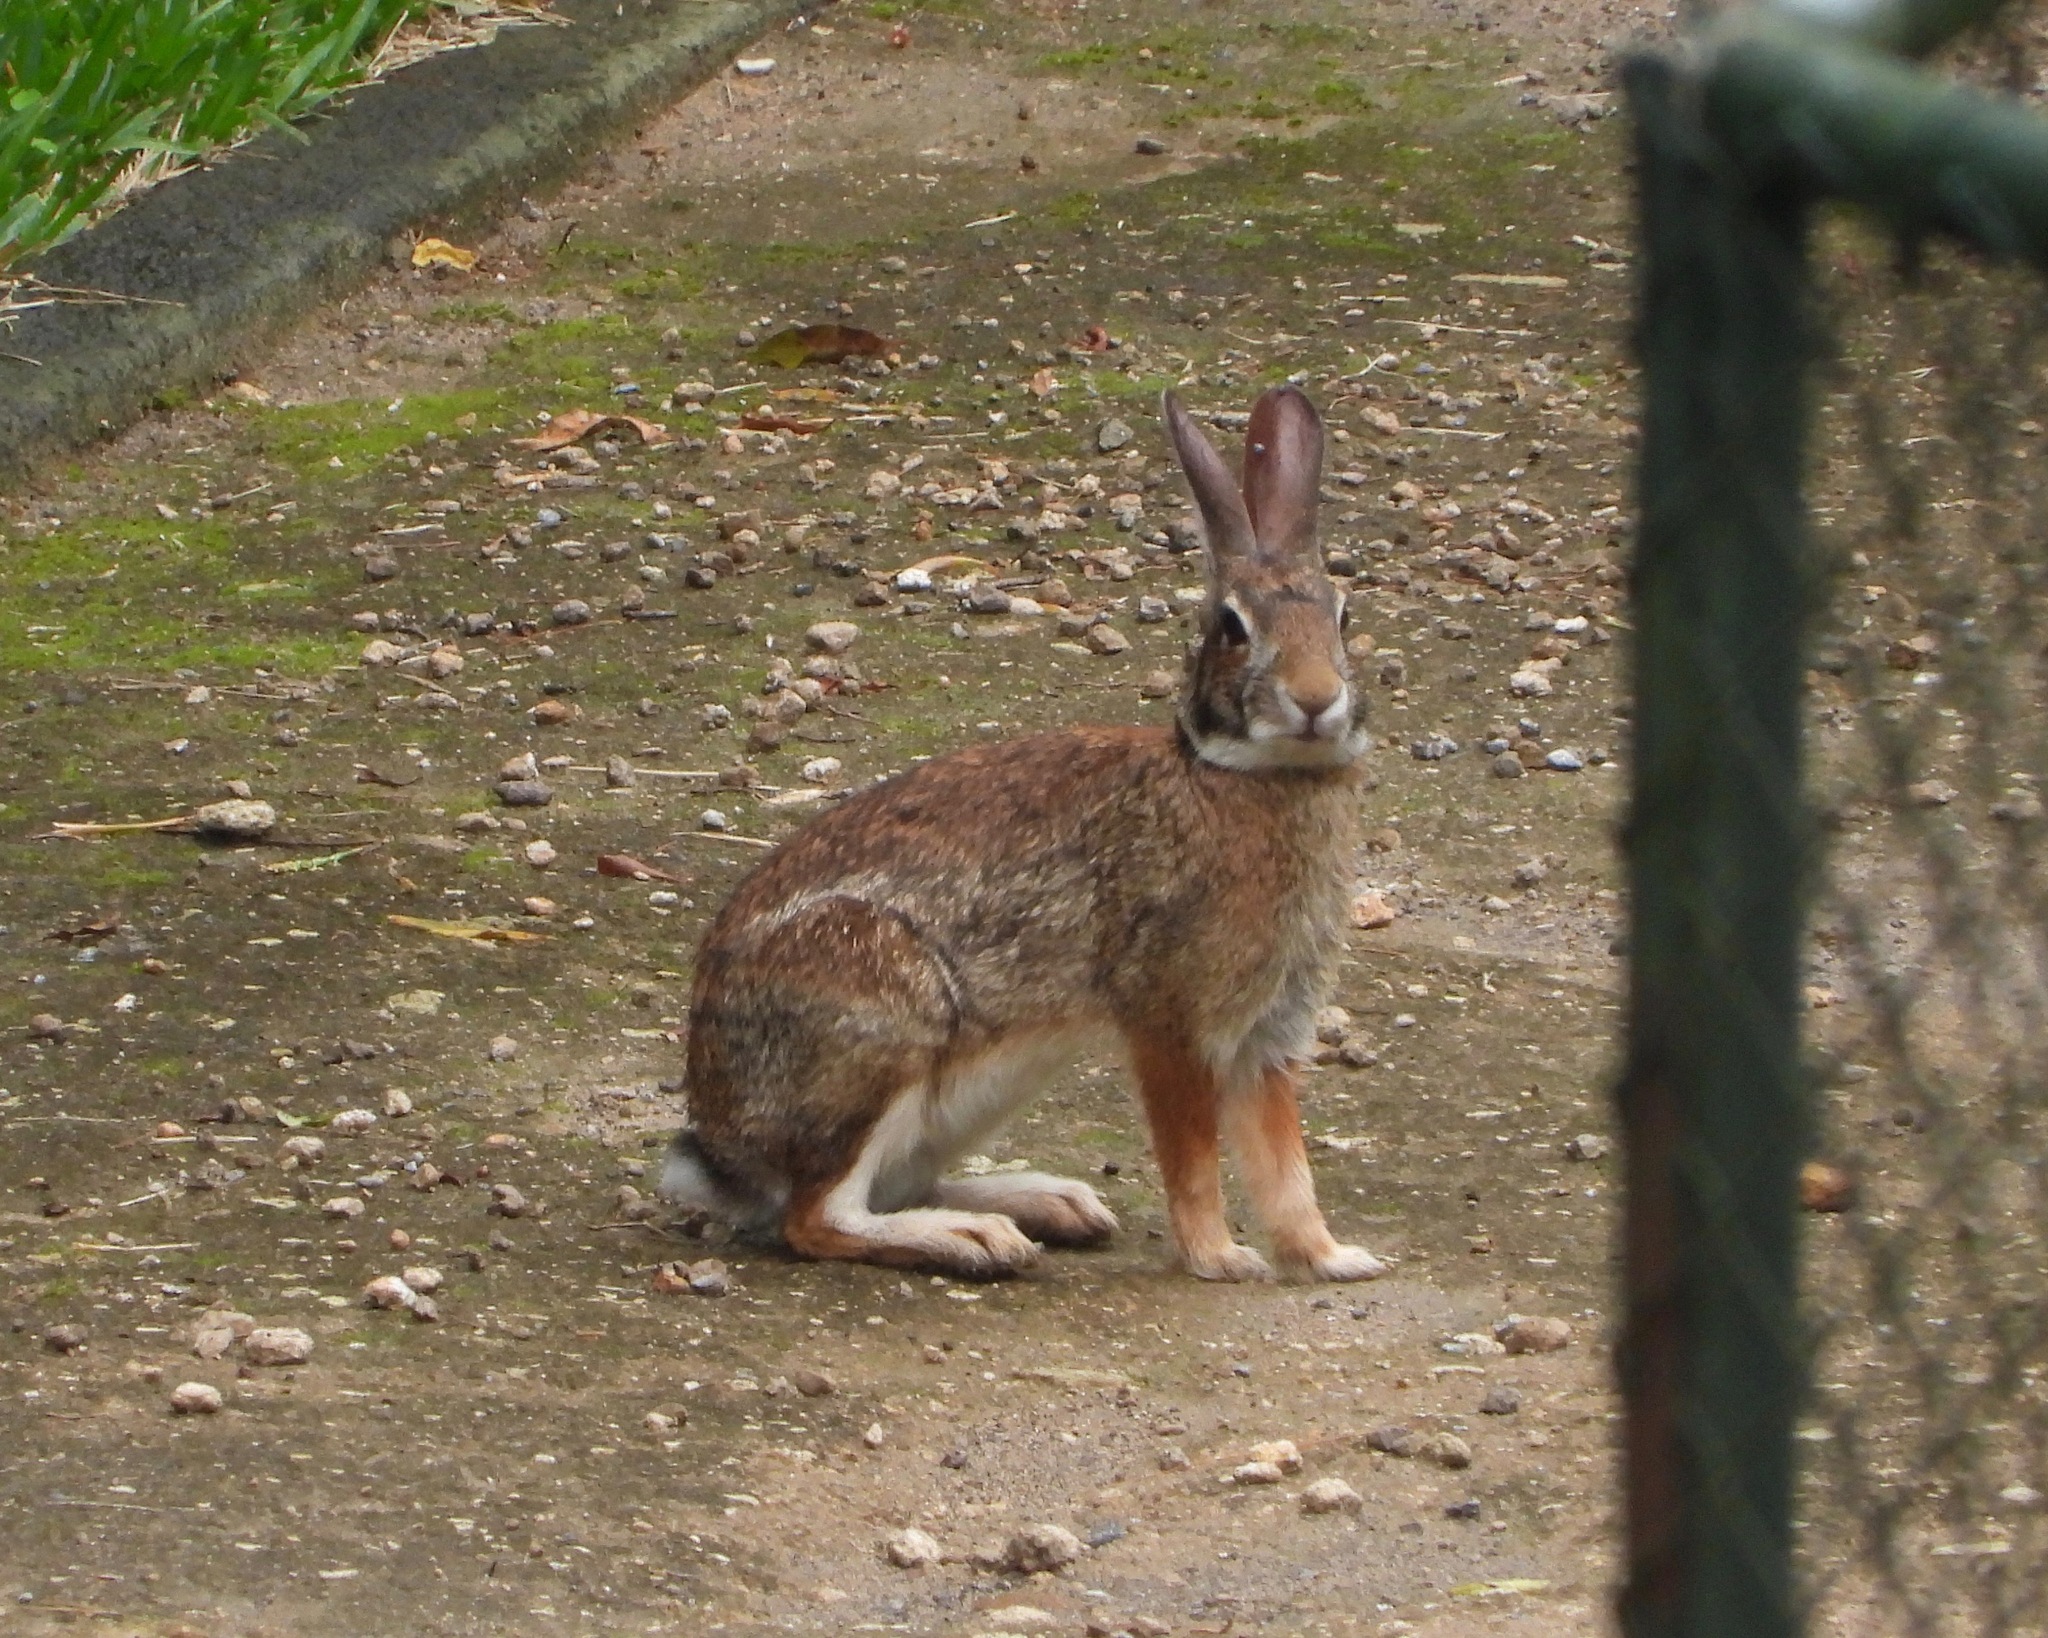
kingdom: Animalia
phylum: Chordata
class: Mammalia
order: Lagomorpha
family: Leporidae
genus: Sylvilagus
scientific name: Sylvilagus floridanus
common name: Eastern cottontail
